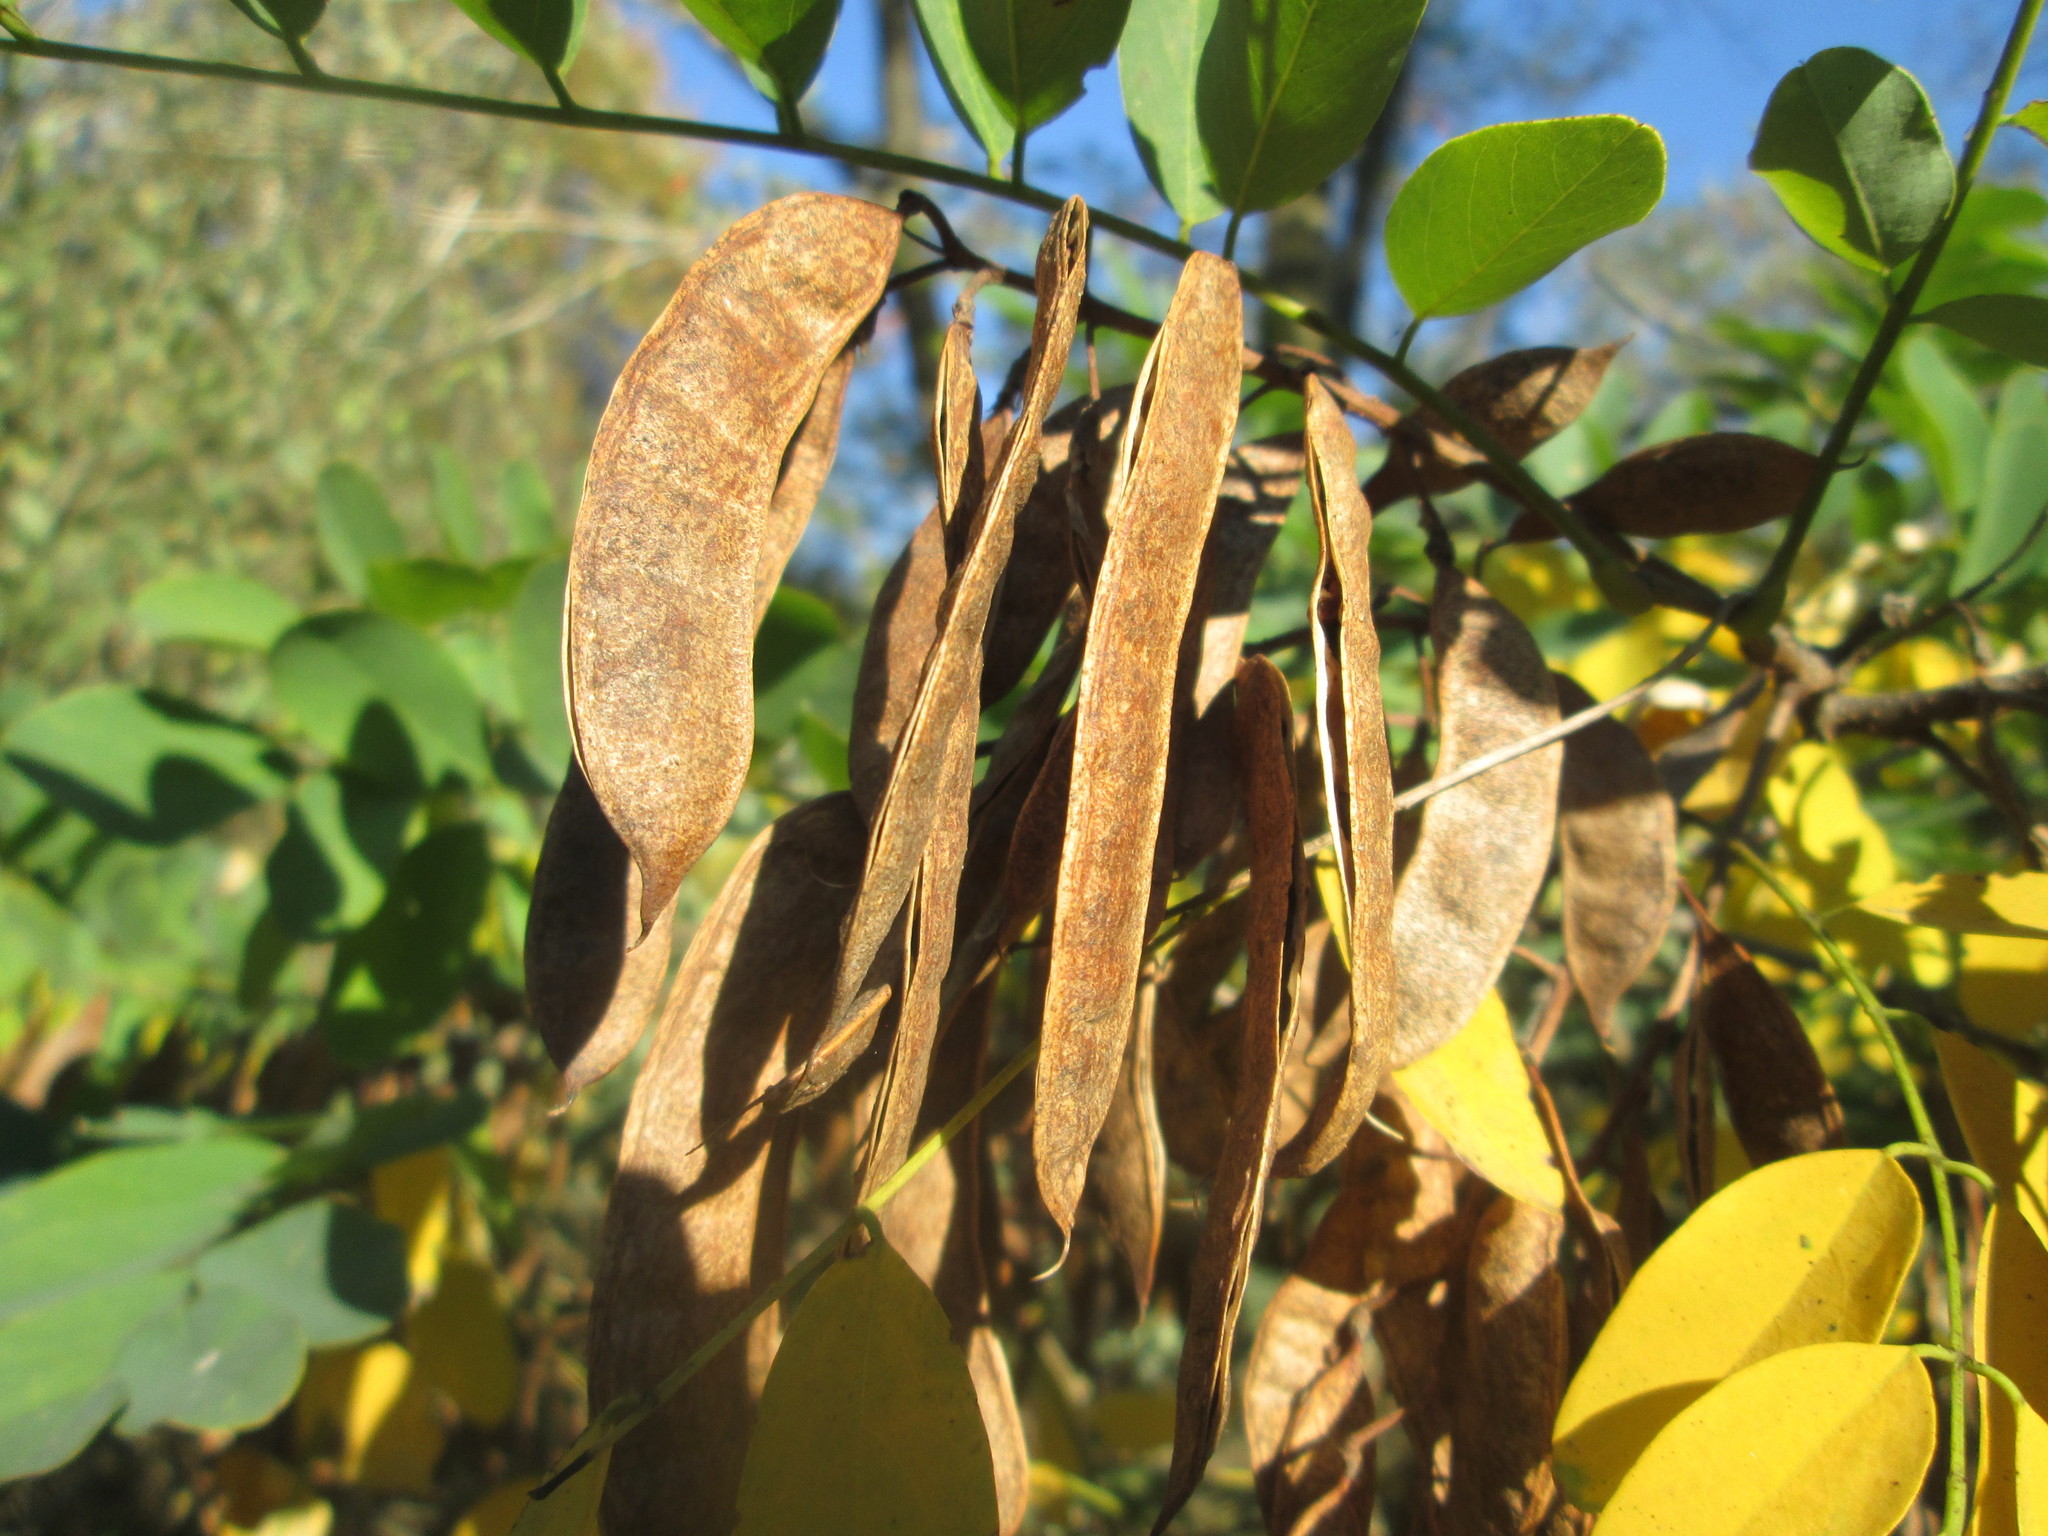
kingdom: Plantae
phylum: Tracheophyta
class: Magnoliopsida
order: Fabales
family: Fabaceae
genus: Robinia
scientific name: Robinia pseudoacacia
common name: Black locust
